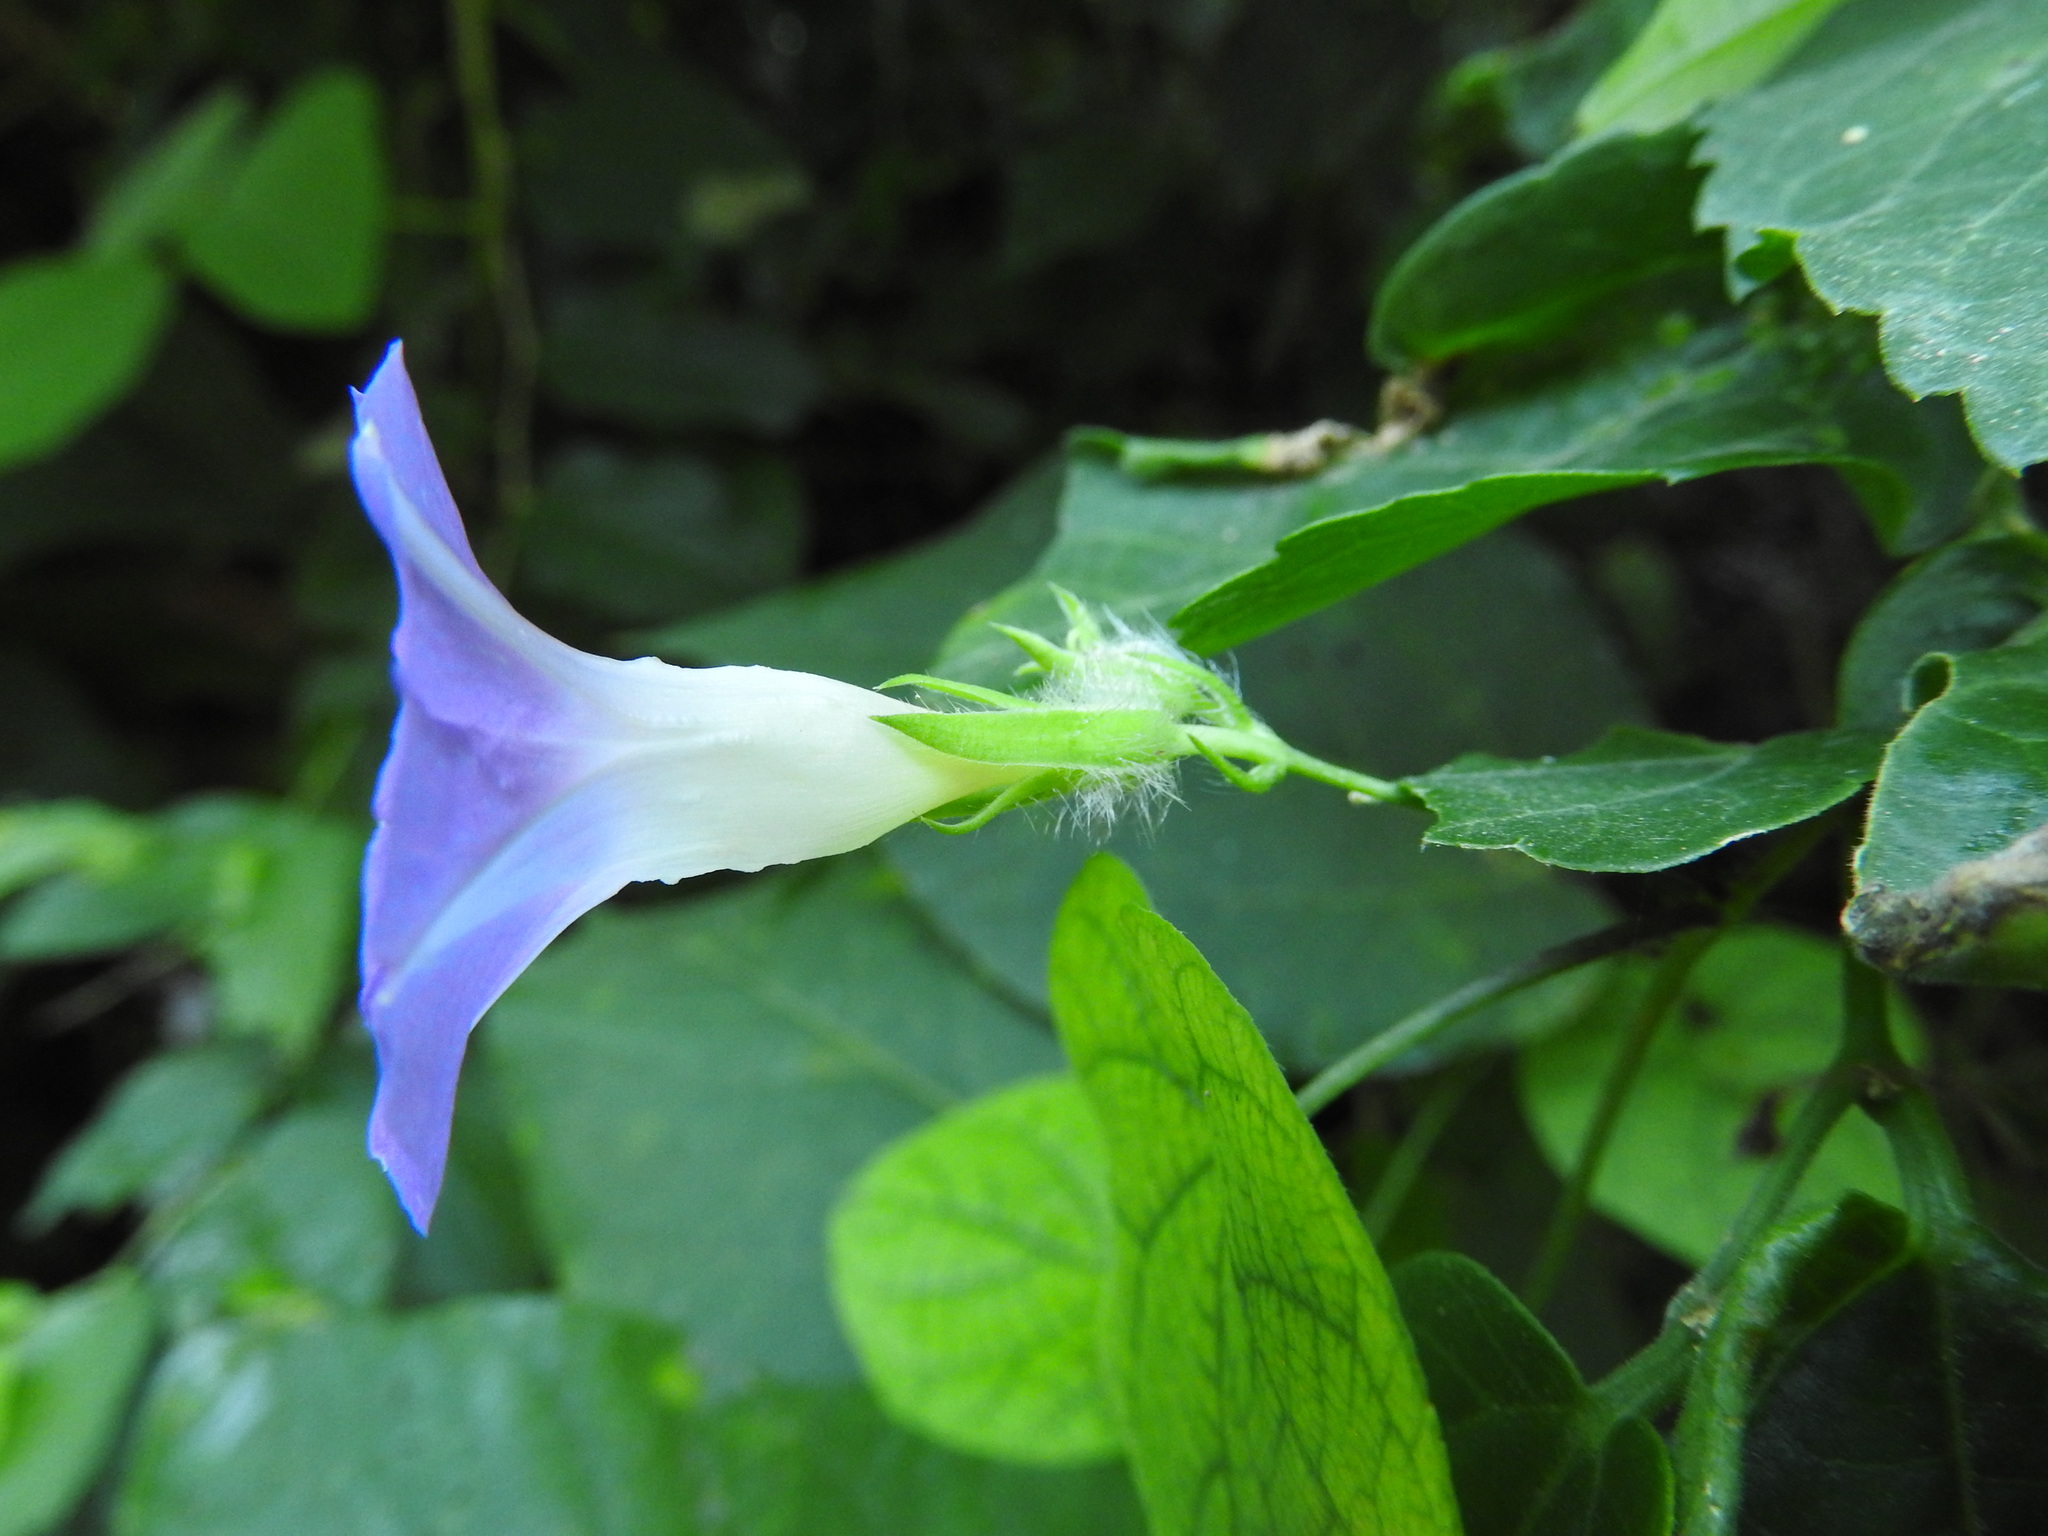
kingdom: Plantae
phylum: Tracheophyta
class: Magnoliopsida
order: Solanales
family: Convolvulaceae
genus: Ipomoea
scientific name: Ipomoea meyeri
